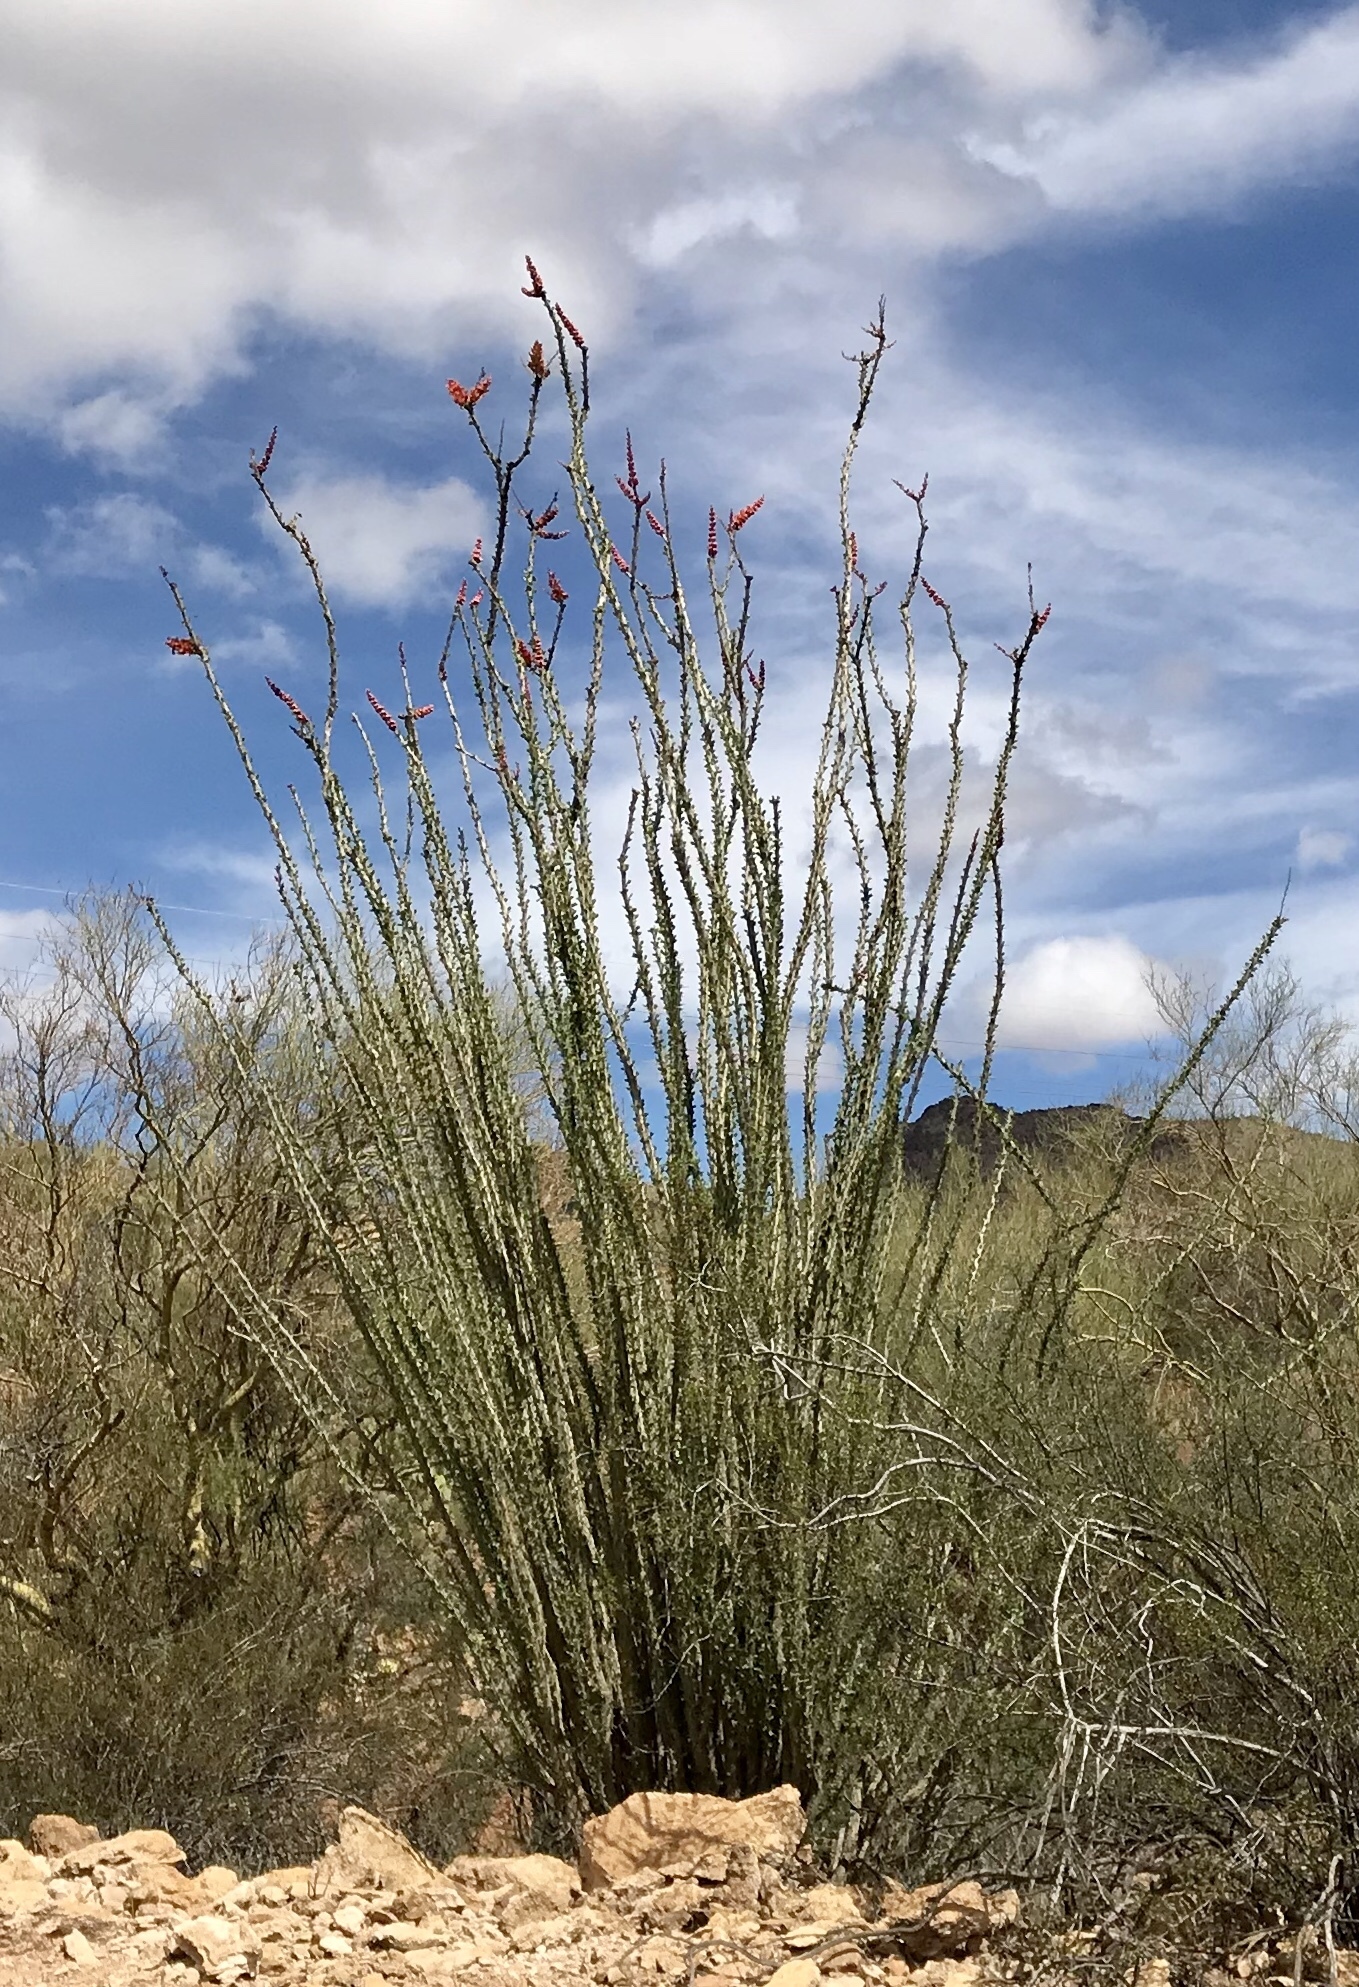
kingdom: Plantae
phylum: Tracheophyta
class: Magnoliopsida
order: Ericales
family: Fouquieriaceae
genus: Fouquieria
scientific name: Fouquieria splendens
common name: Vine-cactus
